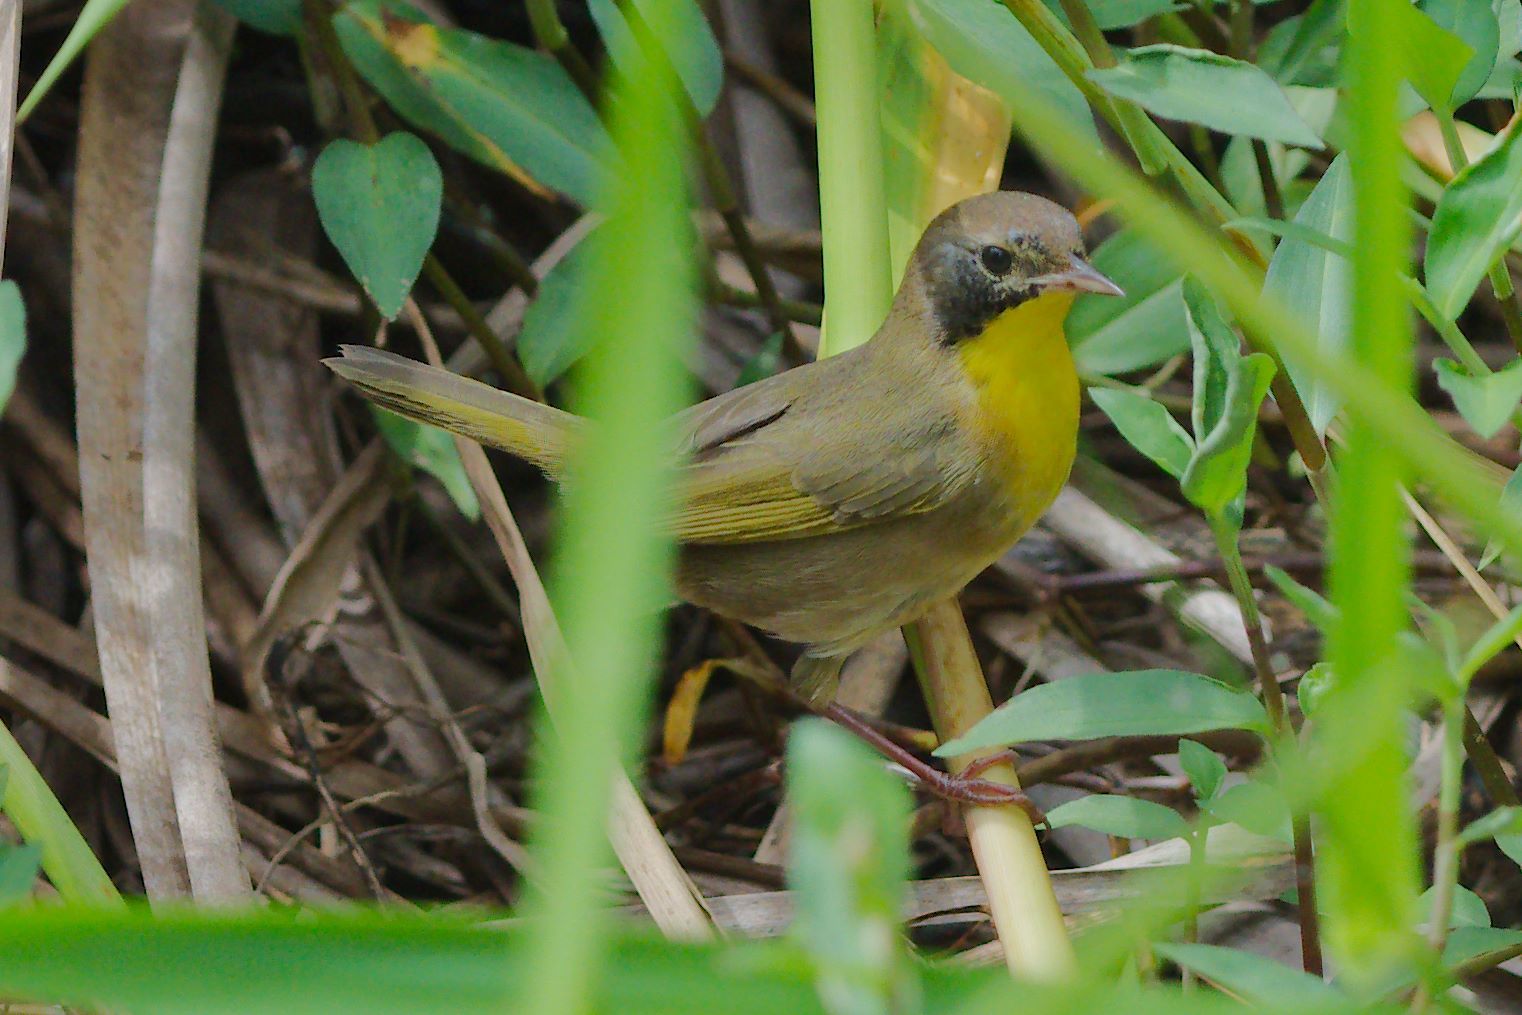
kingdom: Animalia
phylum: Chordata
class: Aves
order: Passeriformes
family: Parulidae
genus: Geothlypis
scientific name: Geothlypis trichas
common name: Common yellowthroat
